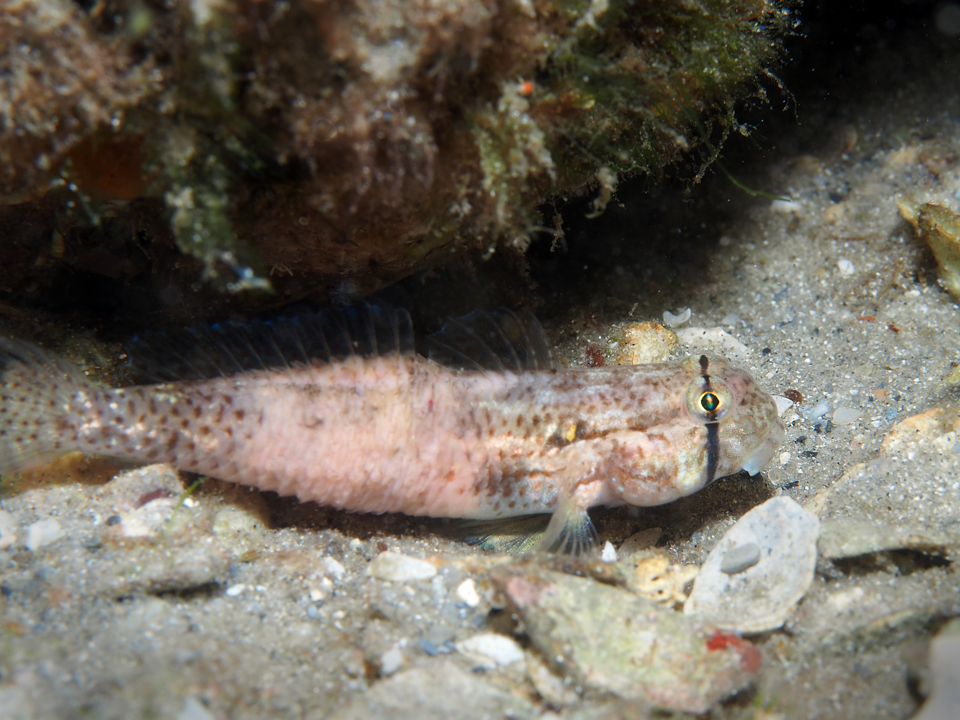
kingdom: Animalia
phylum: Chordata
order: Perciformes
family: Gobiidae
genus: Gnatholepis
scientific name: Gnatholepis thompsoni
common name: Goldspot goby
